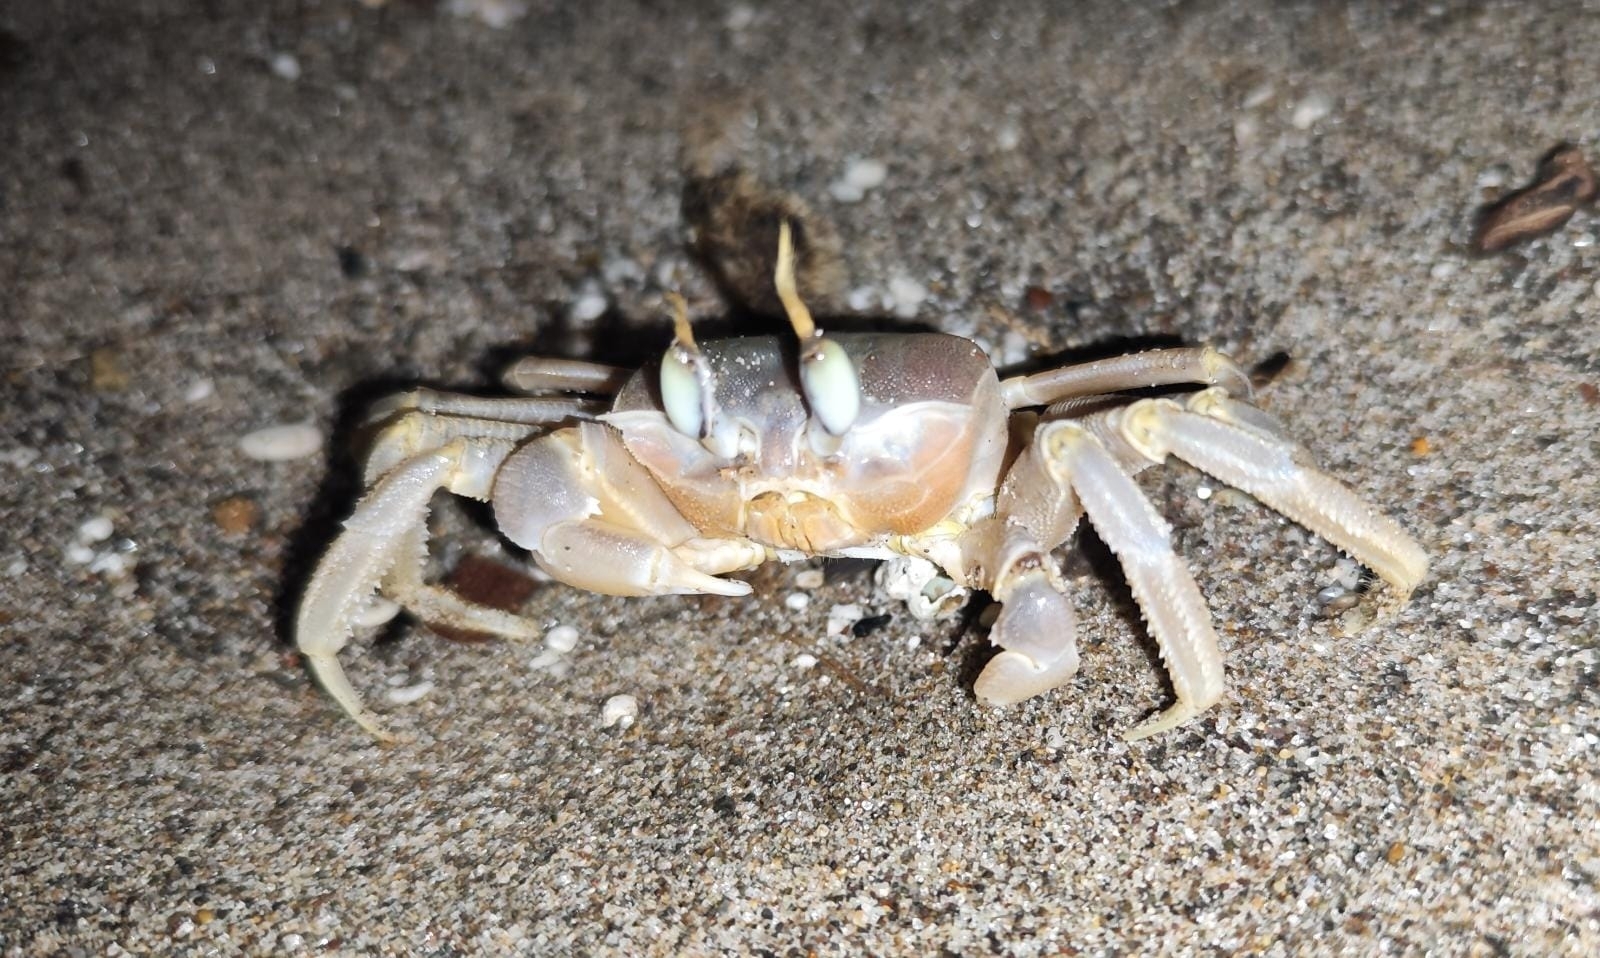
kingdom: Animalia
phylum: Arthropoda
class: Malacostraca
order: Decapoda
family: Ocypodidae
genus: Ocypode
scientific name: Ocypode cursor
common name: Tufted ghost crab
